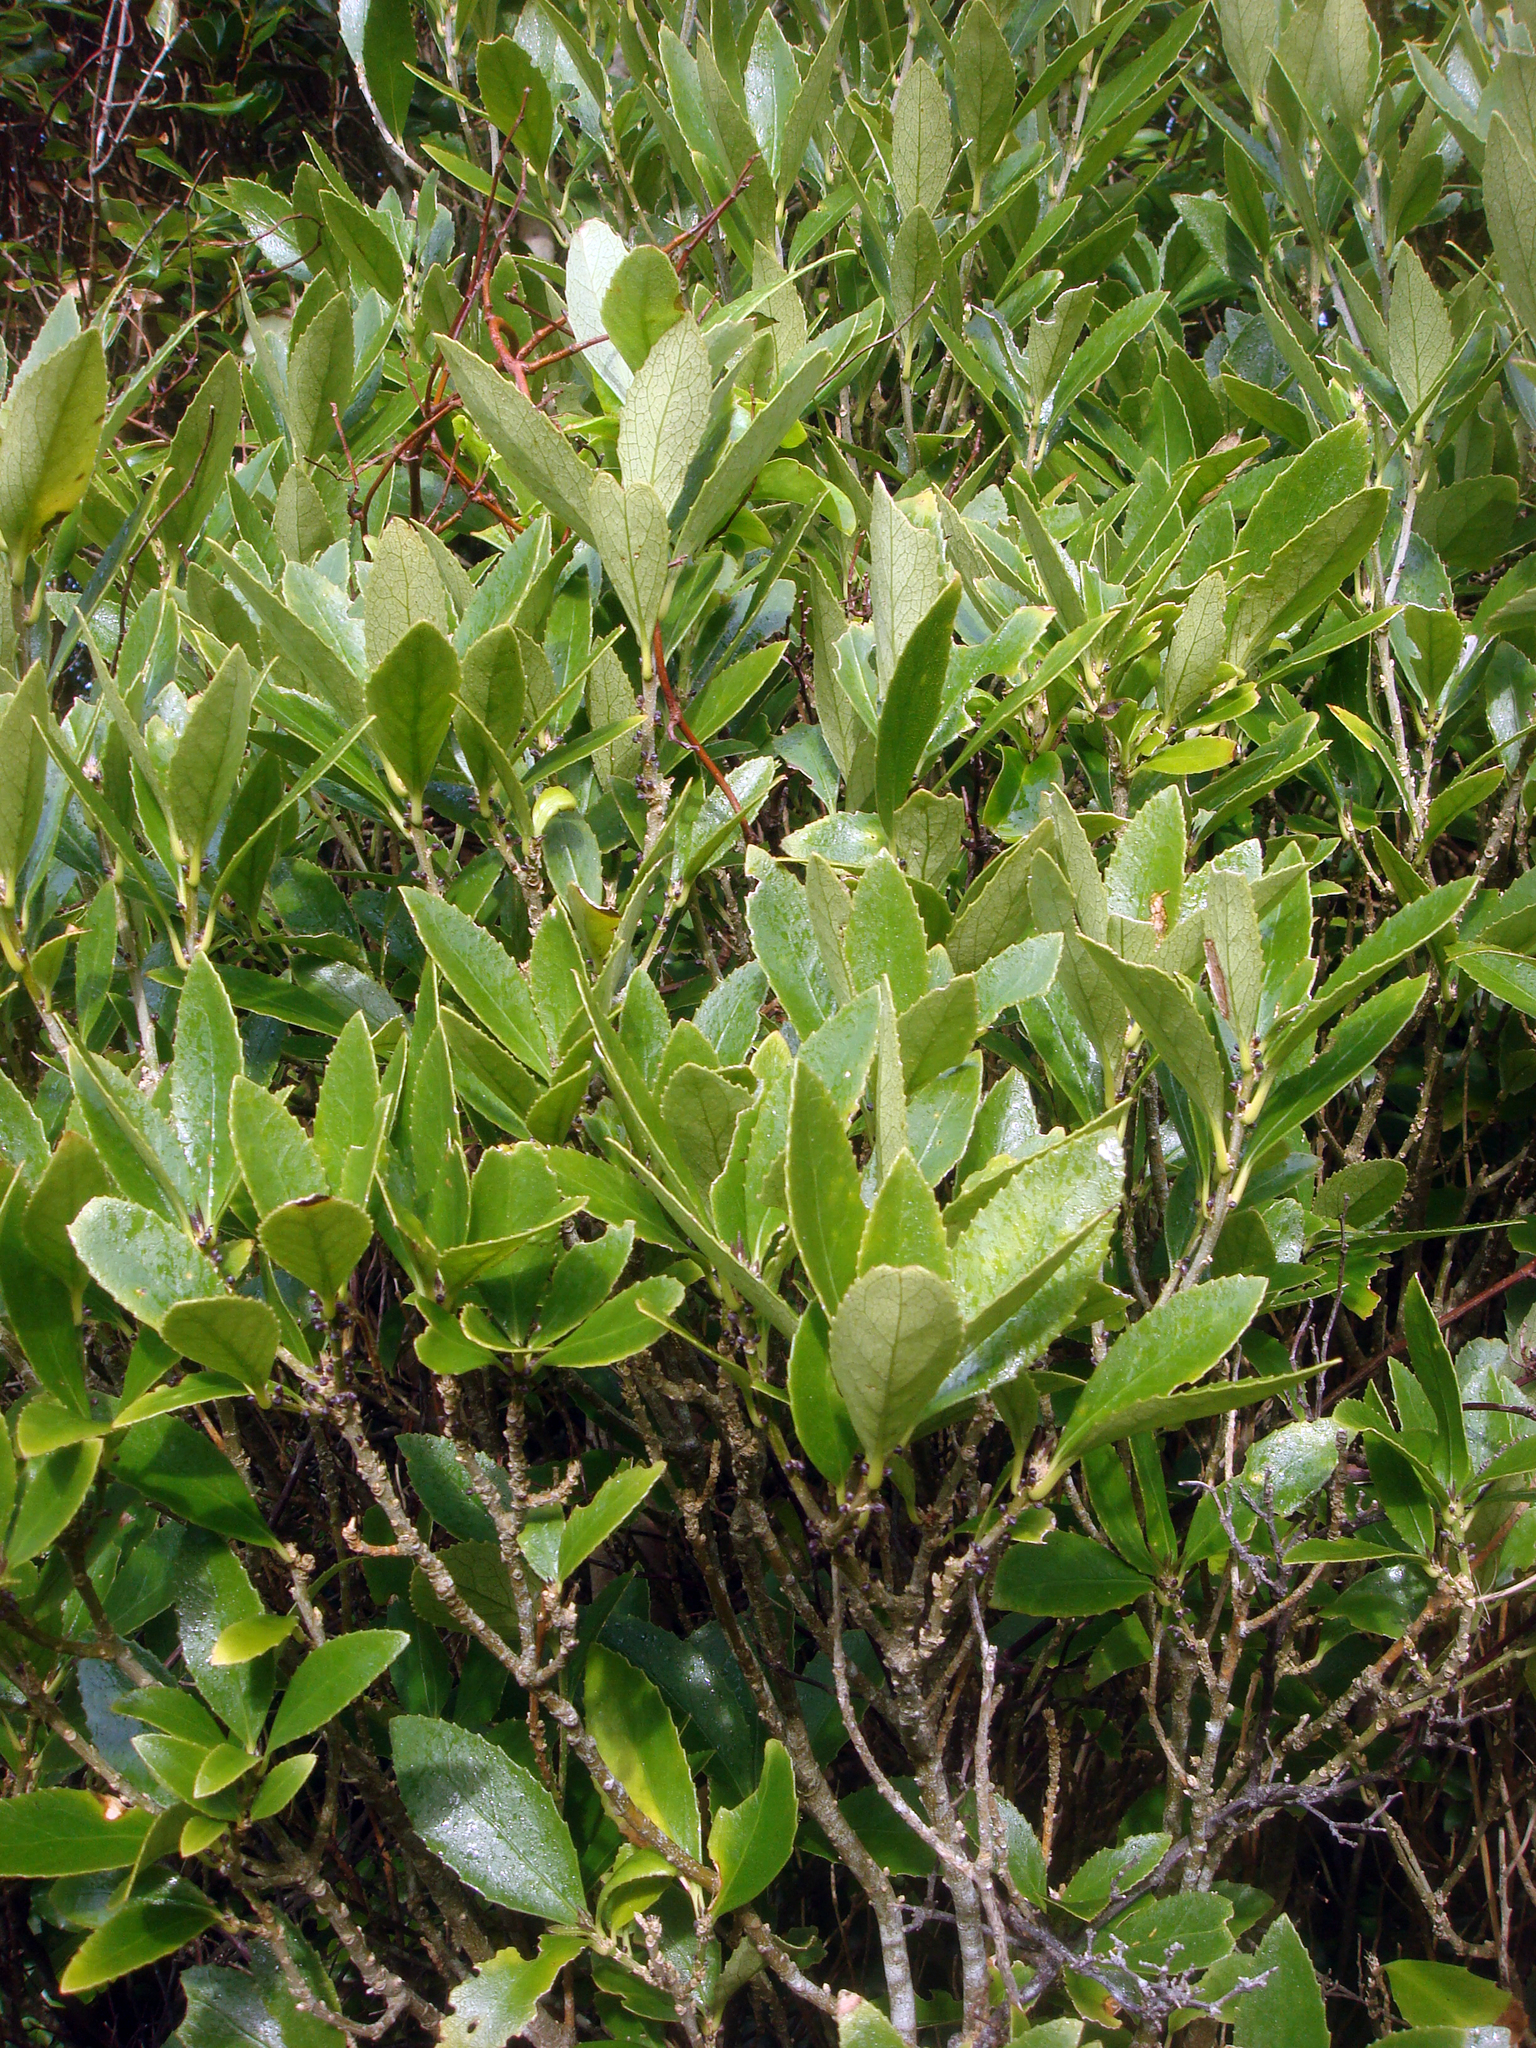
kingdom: Plantae
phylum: Tracheophyta
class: Magnoliopsida
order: Malpighiales
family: Violaceae
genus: Melicytus
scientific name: Melicytus chathamicus
